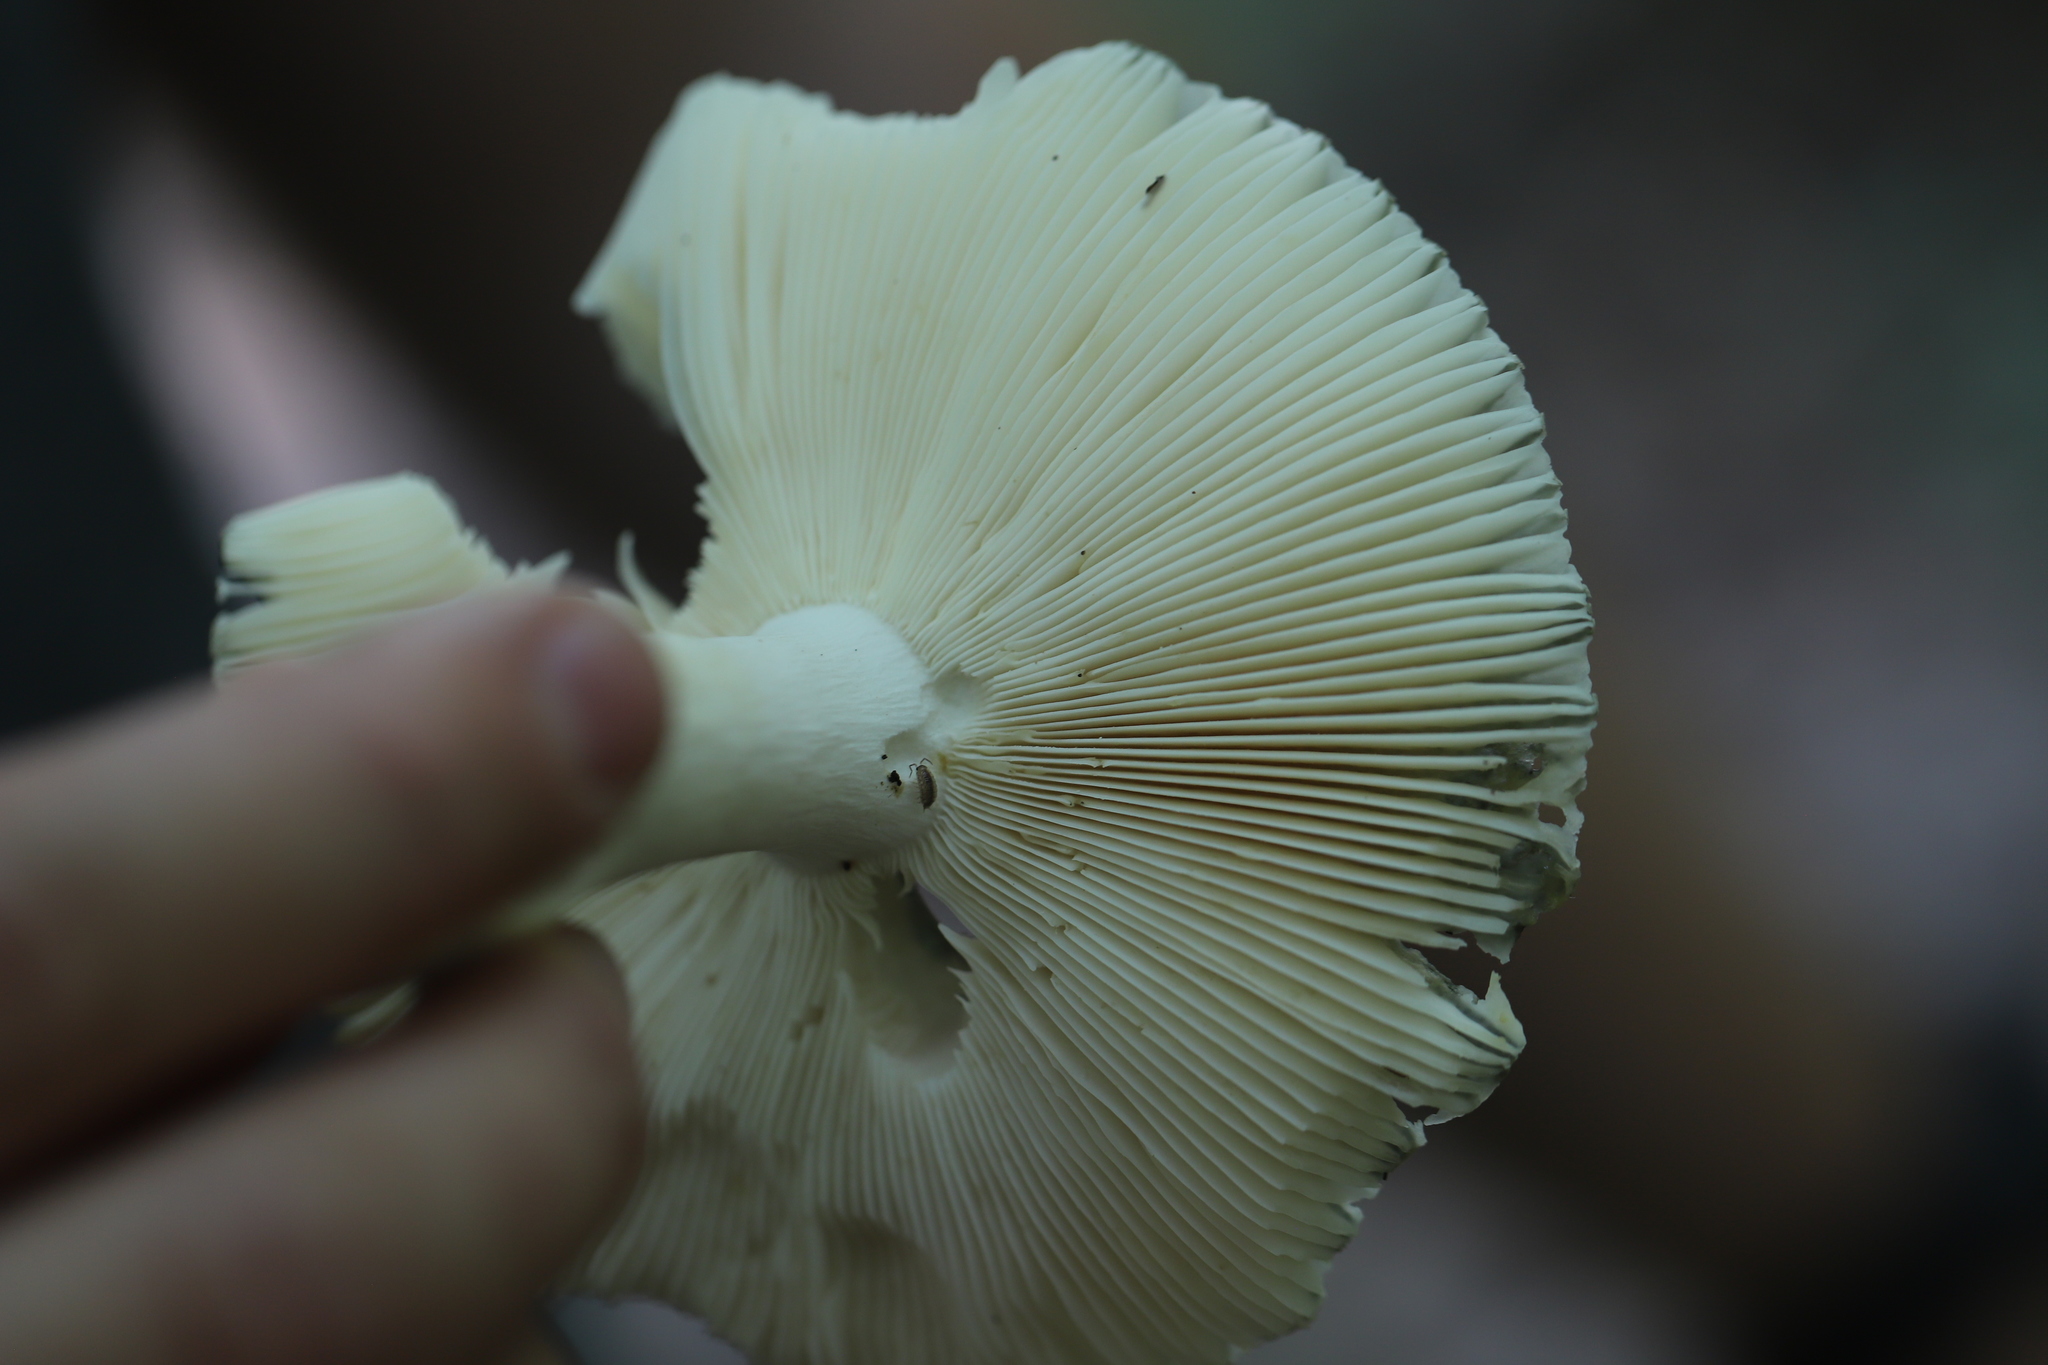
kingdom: Fungi
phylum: Basidiomycota
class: Agaricomycetes
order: Russulales
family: Russulaceae
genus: Russula
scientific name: Russula parvovirescens
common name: Blue-green cracking russula
